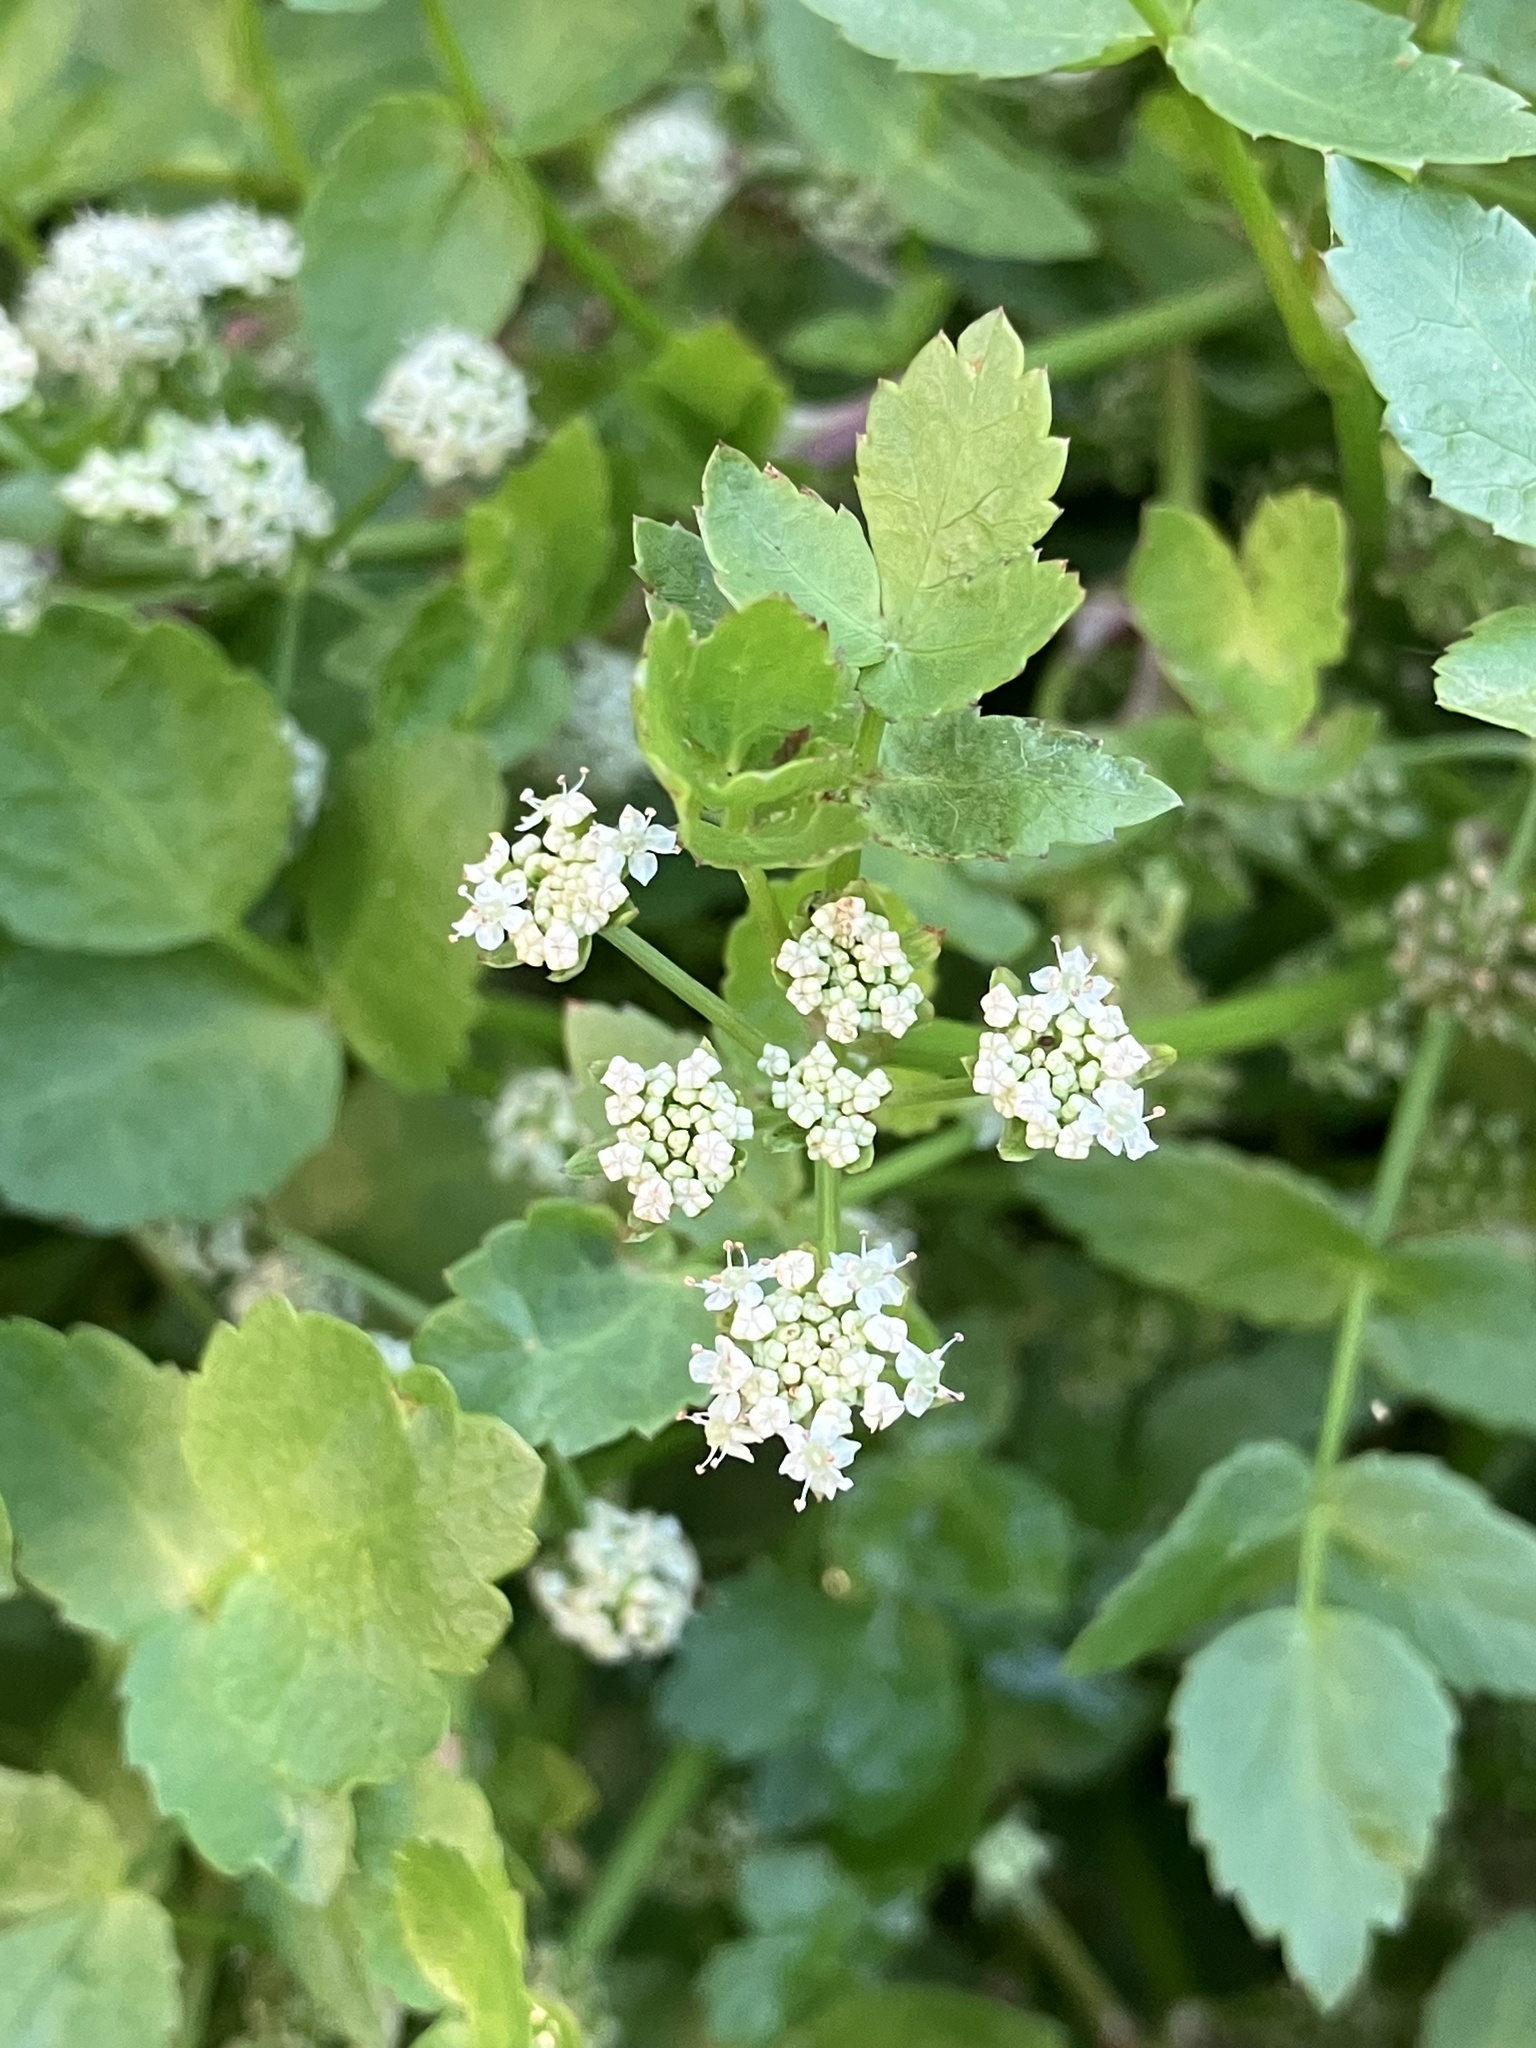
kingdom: Plantae
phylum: Tracheophyta
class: Magnoliopsida
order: Apiales
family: Apiaceae
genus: Helosciadium
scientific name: Helosciadium nodiflorum
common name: Fool's-watercress
